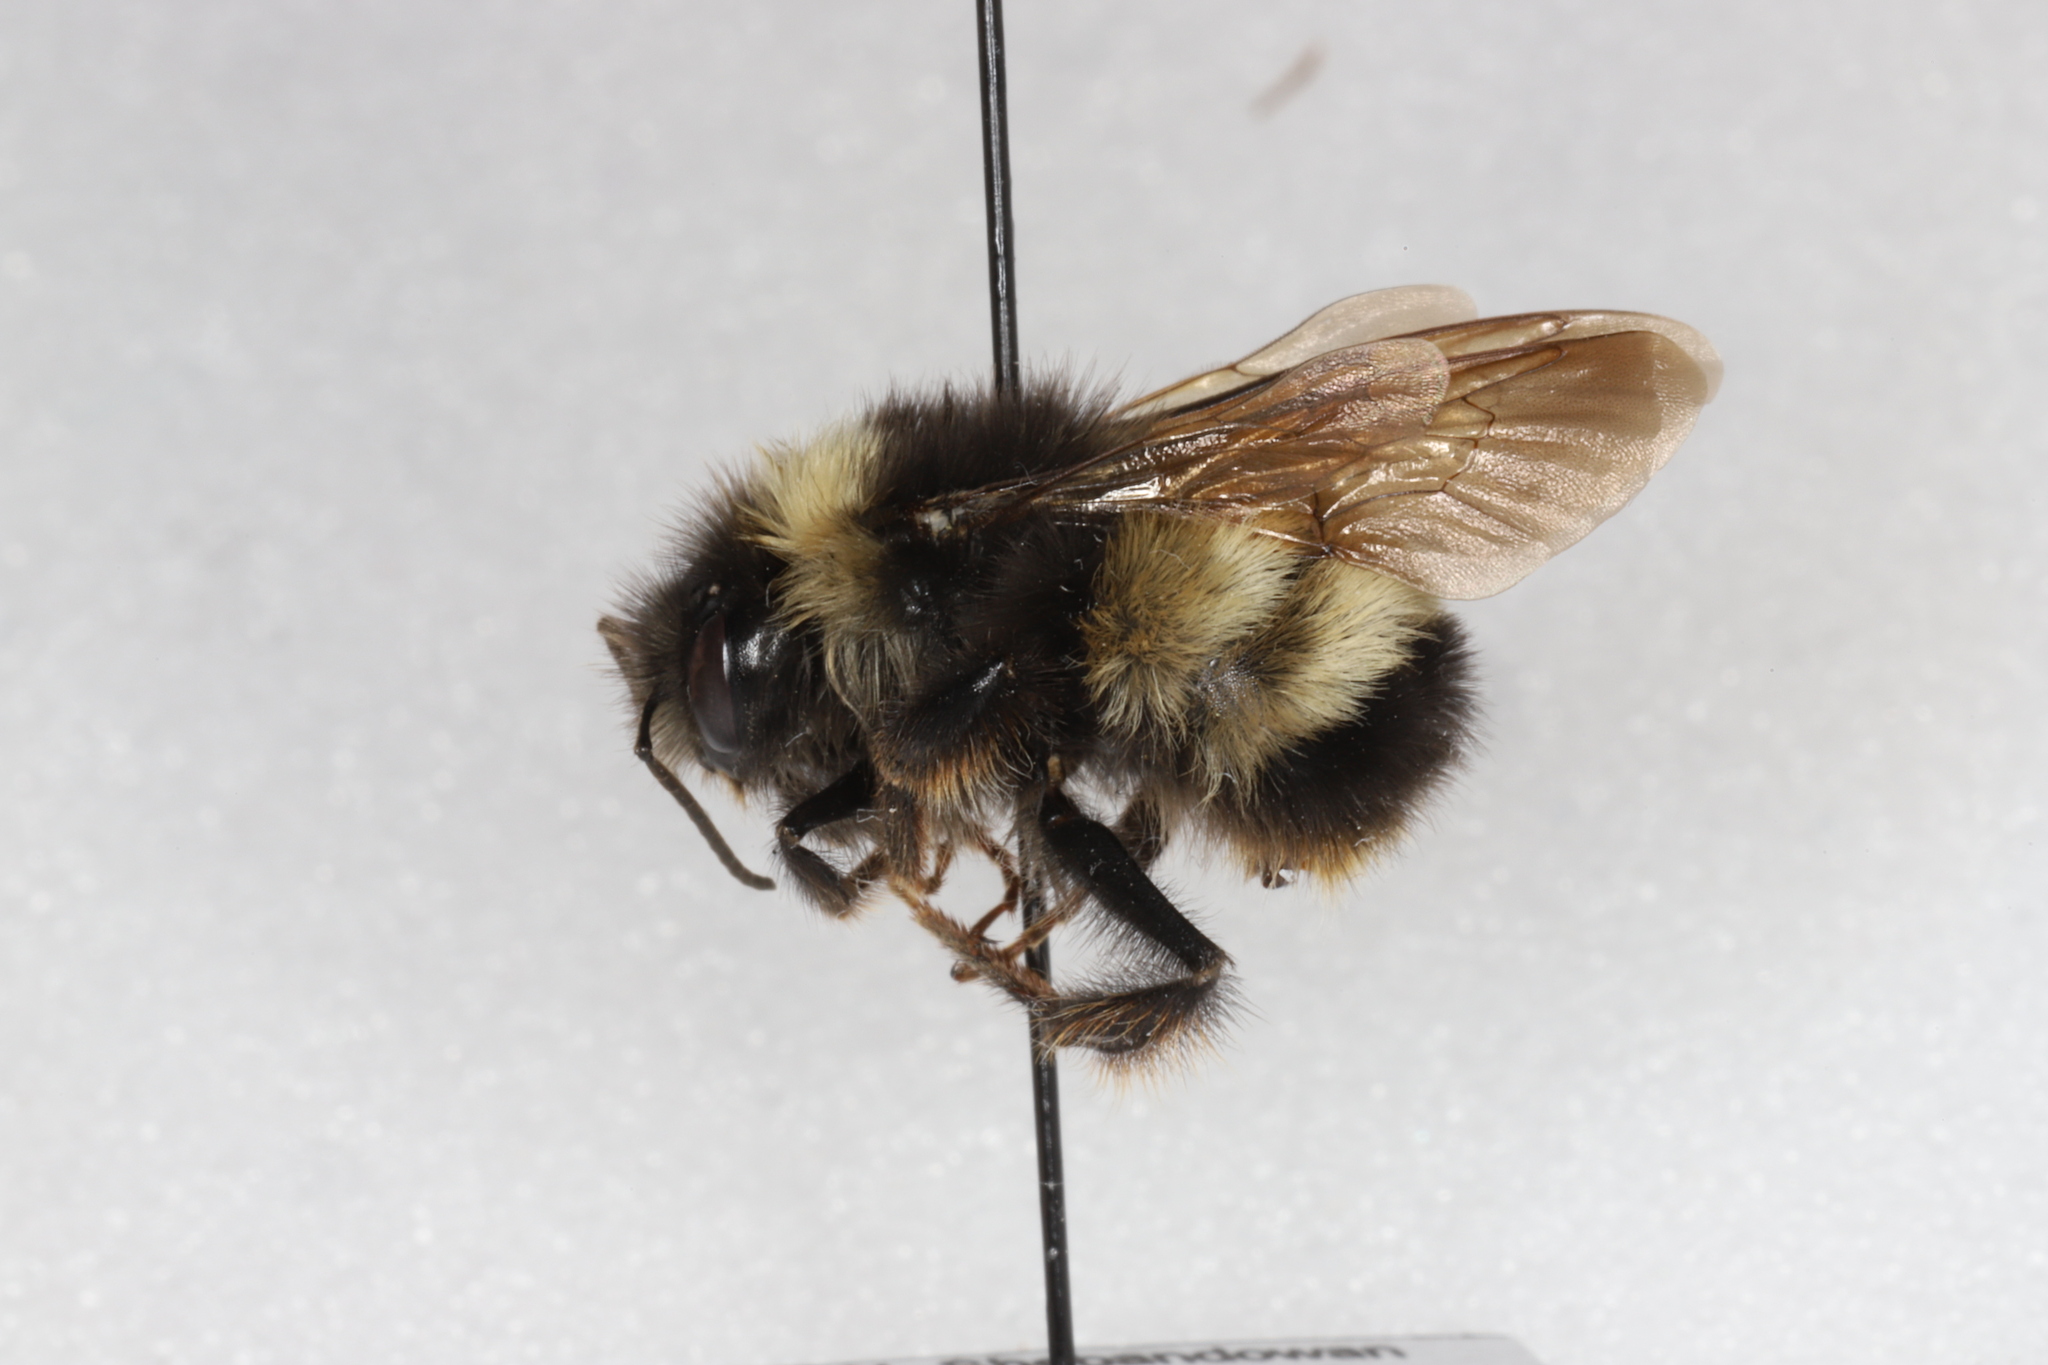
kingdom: Animalia
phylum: Arthropoda
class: Insecta
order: Hymenoptera
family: Apidae
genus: Bombus
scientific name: Bombus terricola
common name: Yellow-banded bumble bee
